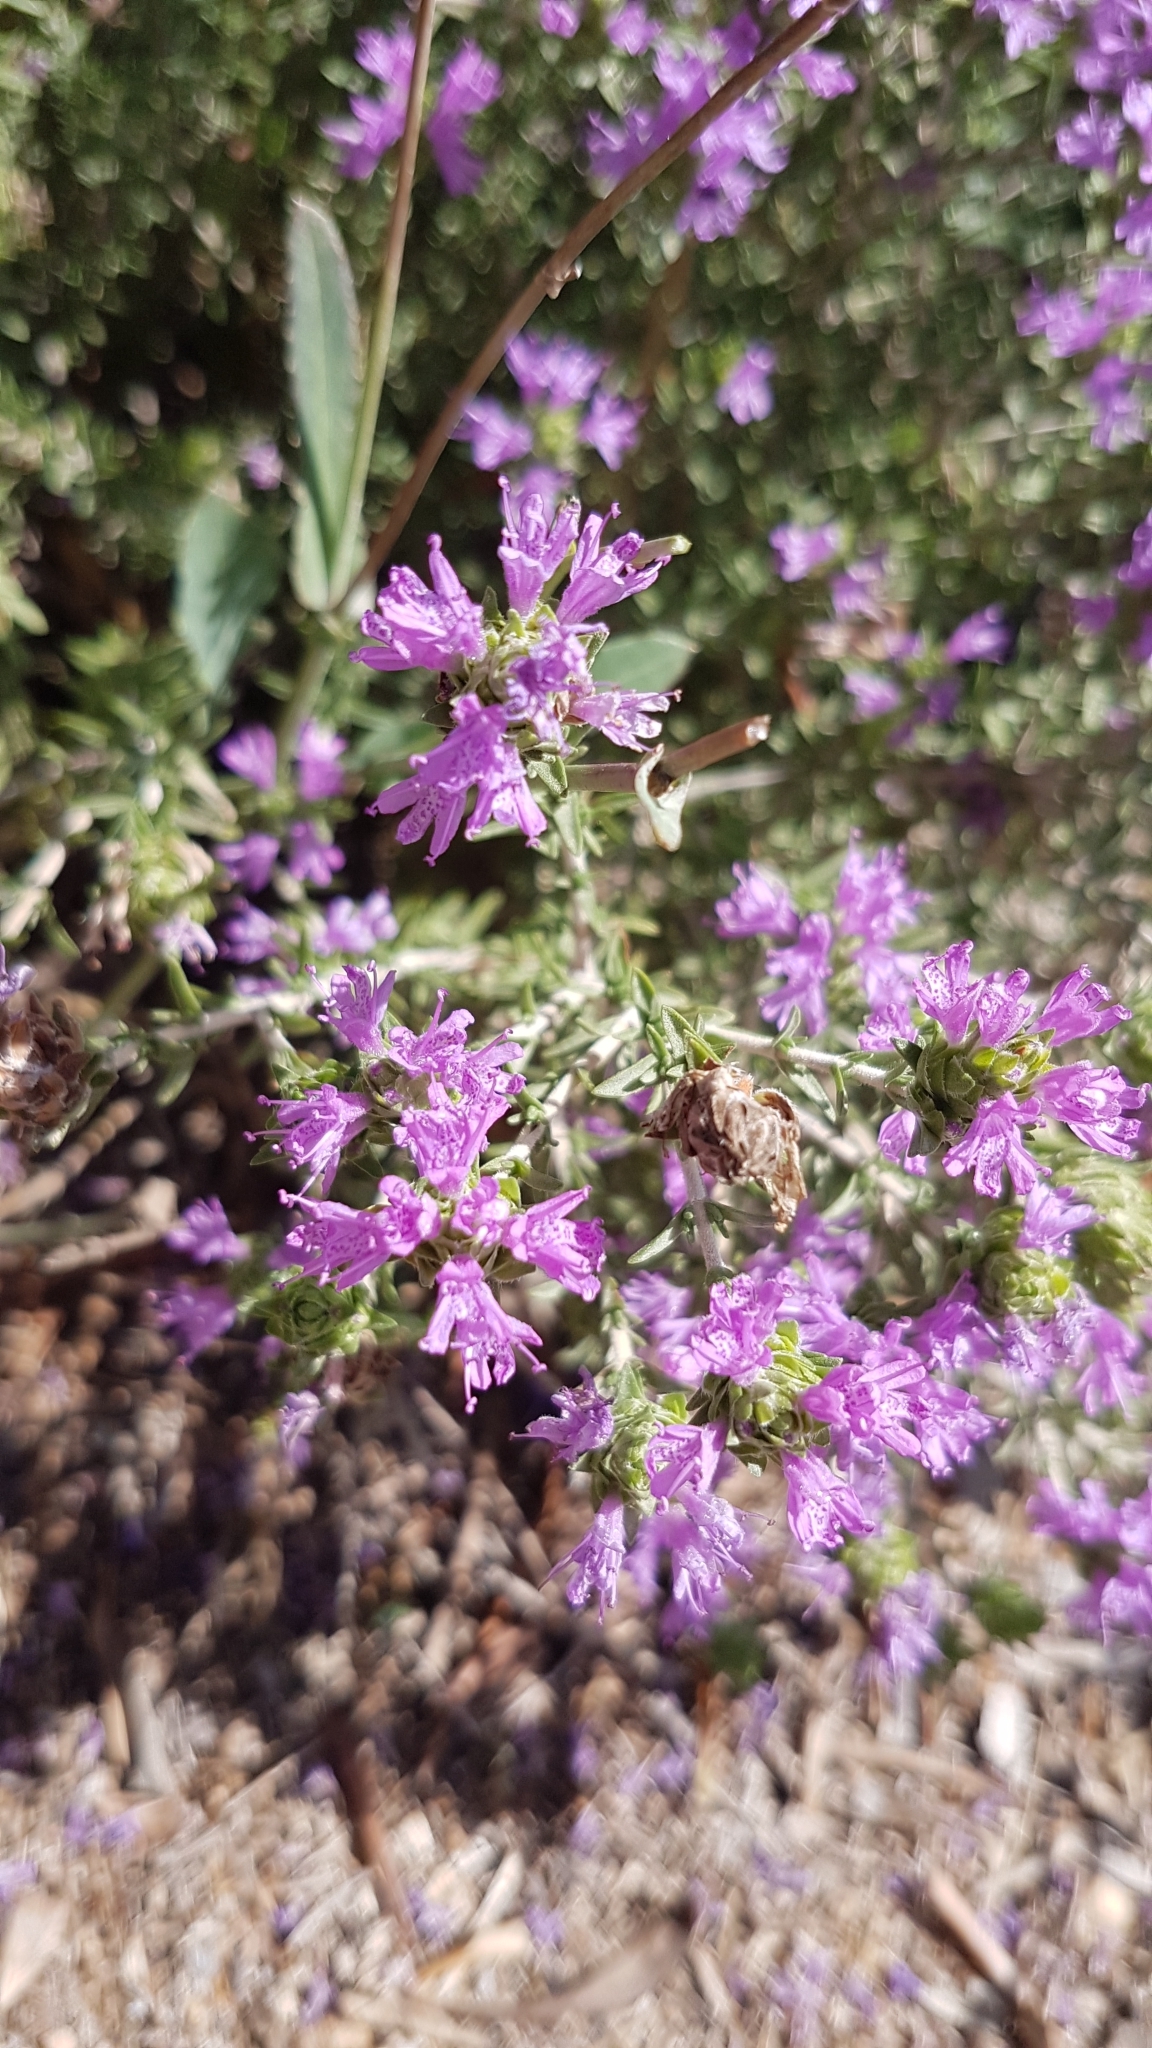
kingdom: Plantae
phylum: Tracheophyta
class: Magnoliopsida
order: Lamiales
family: Lamiaceae
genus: Thymbra
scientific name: Thymbra capitata
